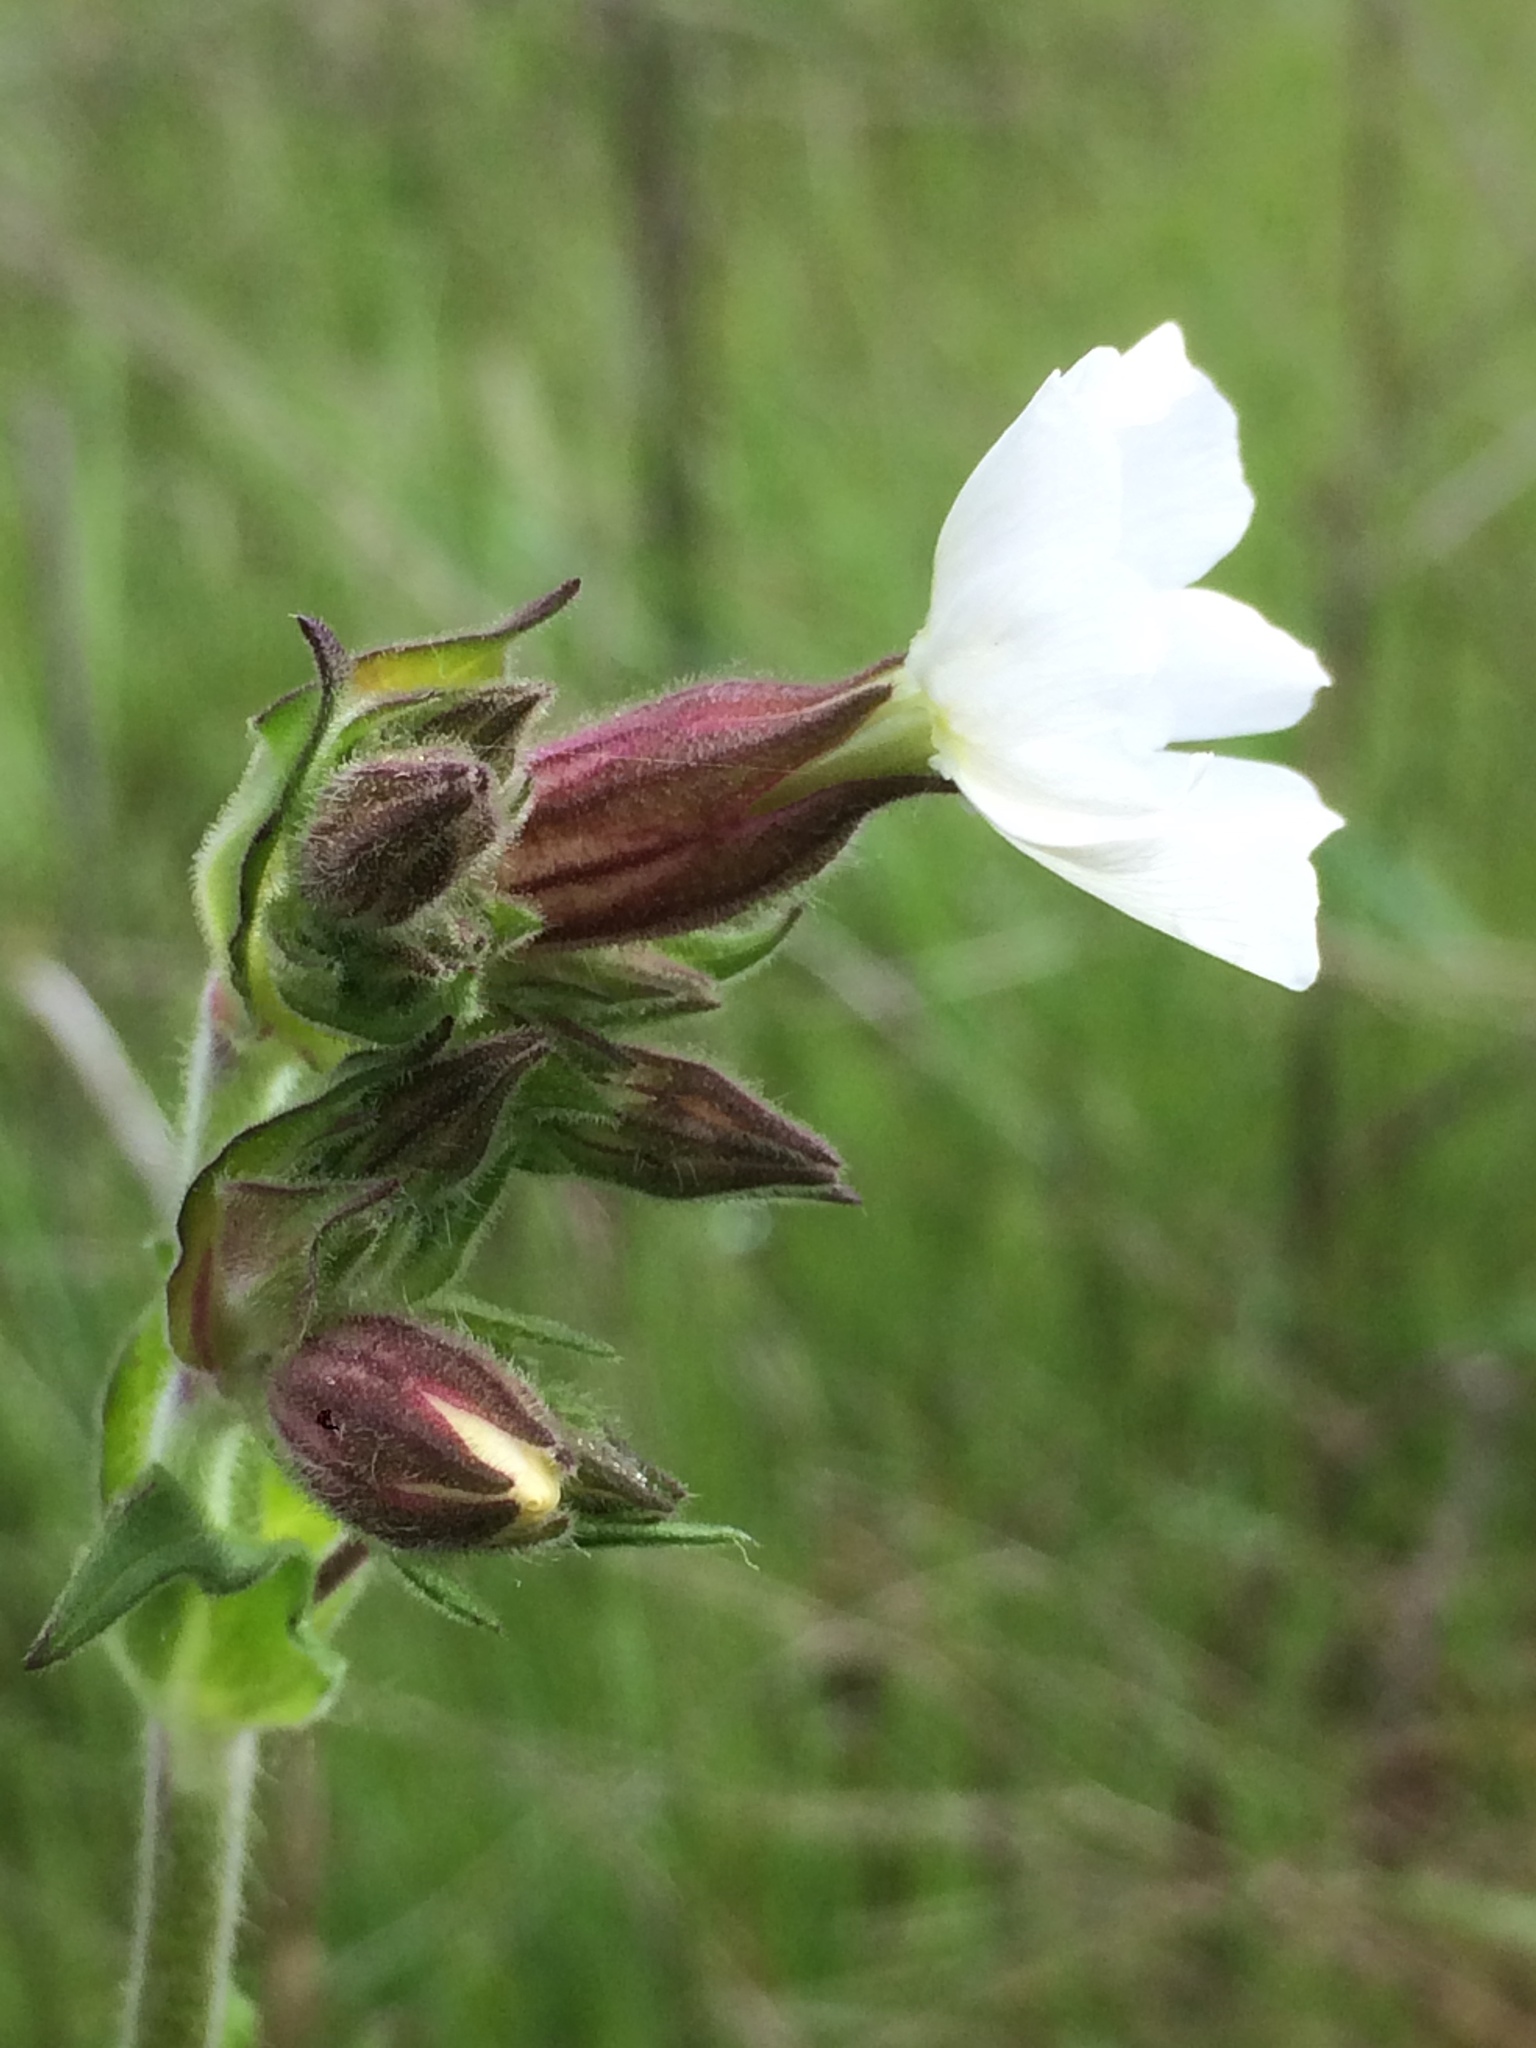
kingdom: Plantae
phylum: Tracheophyta
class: Magnoliopsida
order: Caryophyllales
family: Caryophyllaceae
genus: Silene
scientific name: Silene latifolia
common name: White campion
